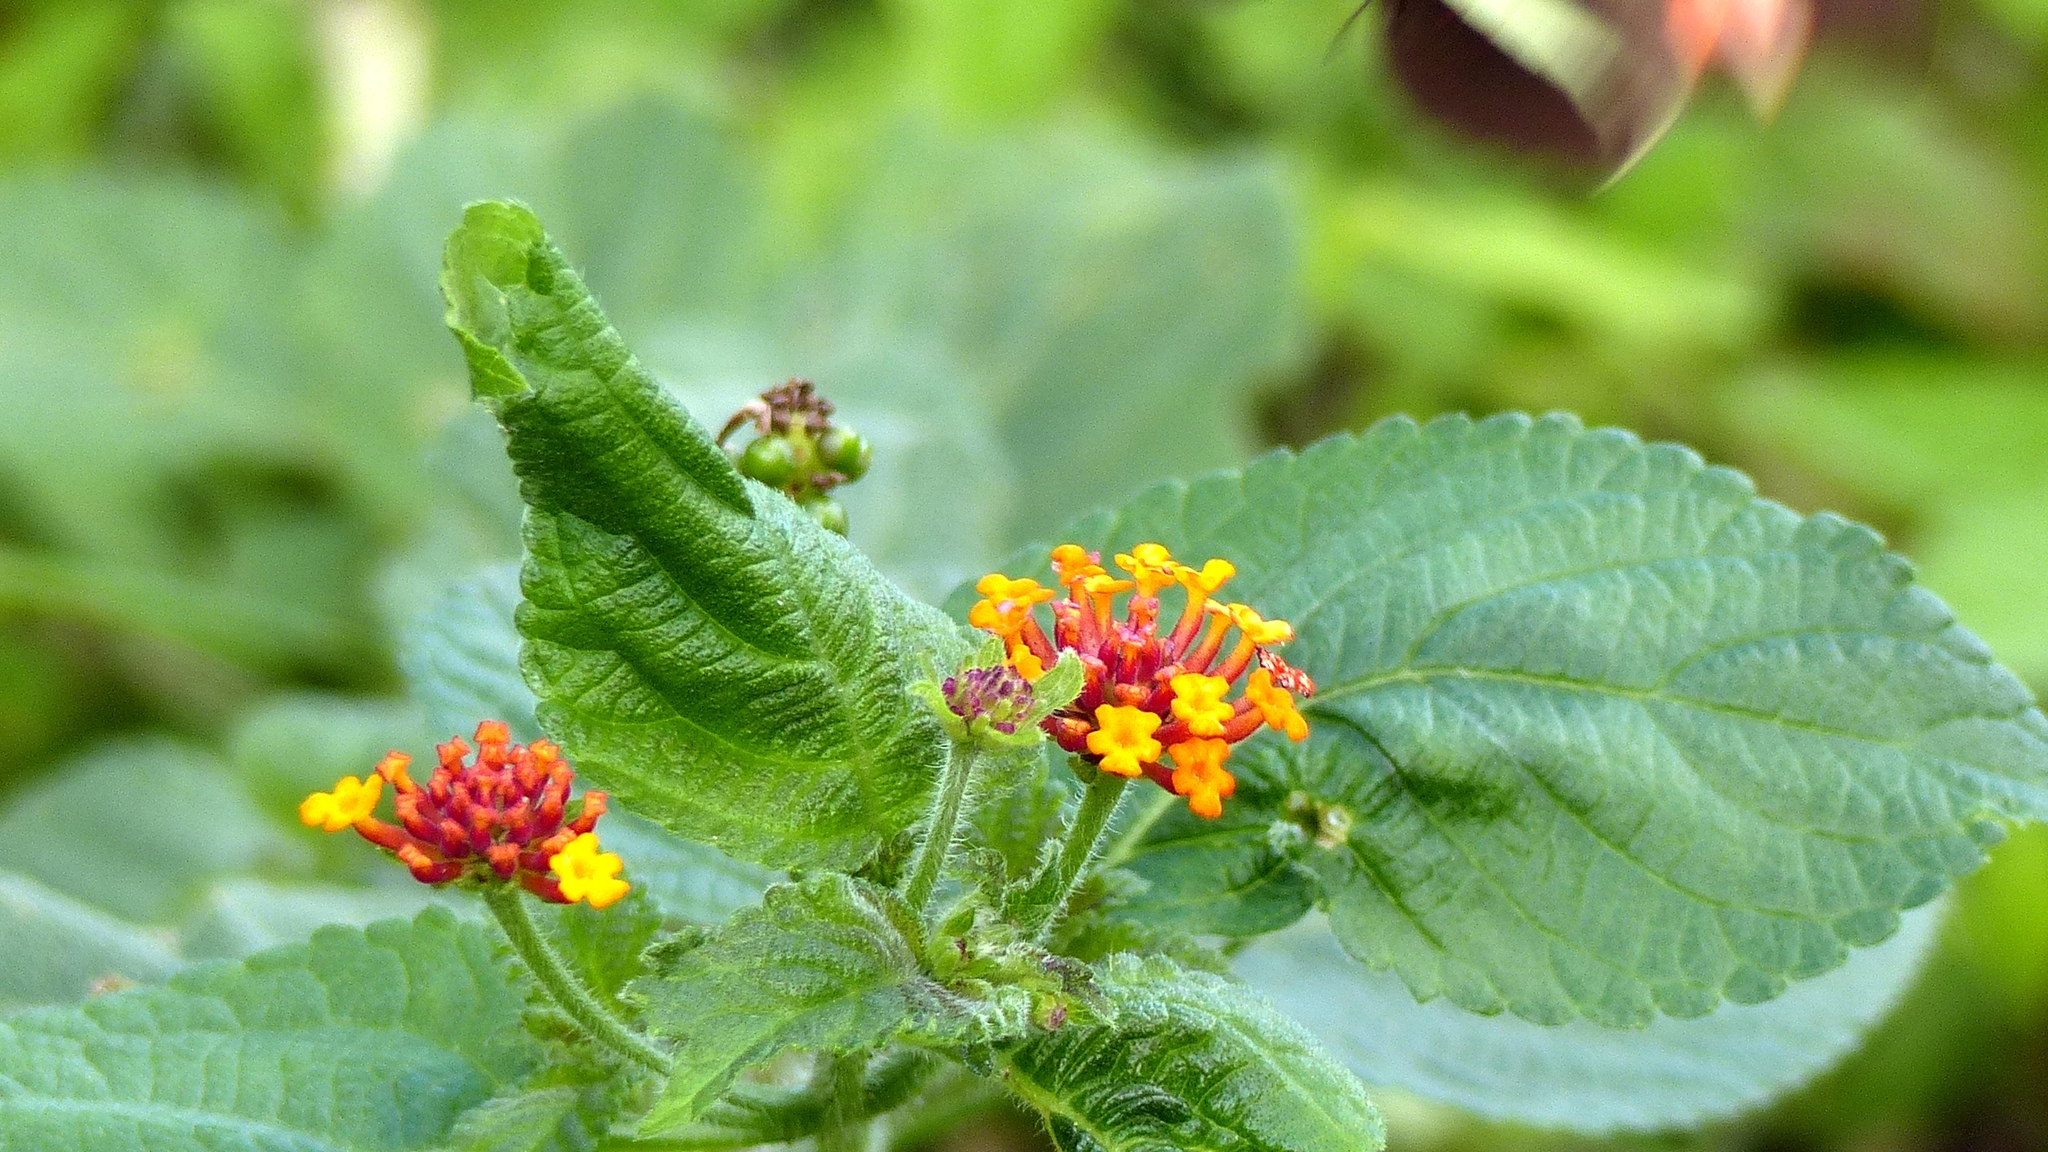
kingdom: Plantae
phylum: Tracheophyta
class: Magnoliopsida
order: Lamiales
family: Verbenaceae
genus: Lantana
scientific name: Lantana camara
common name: Lantana
